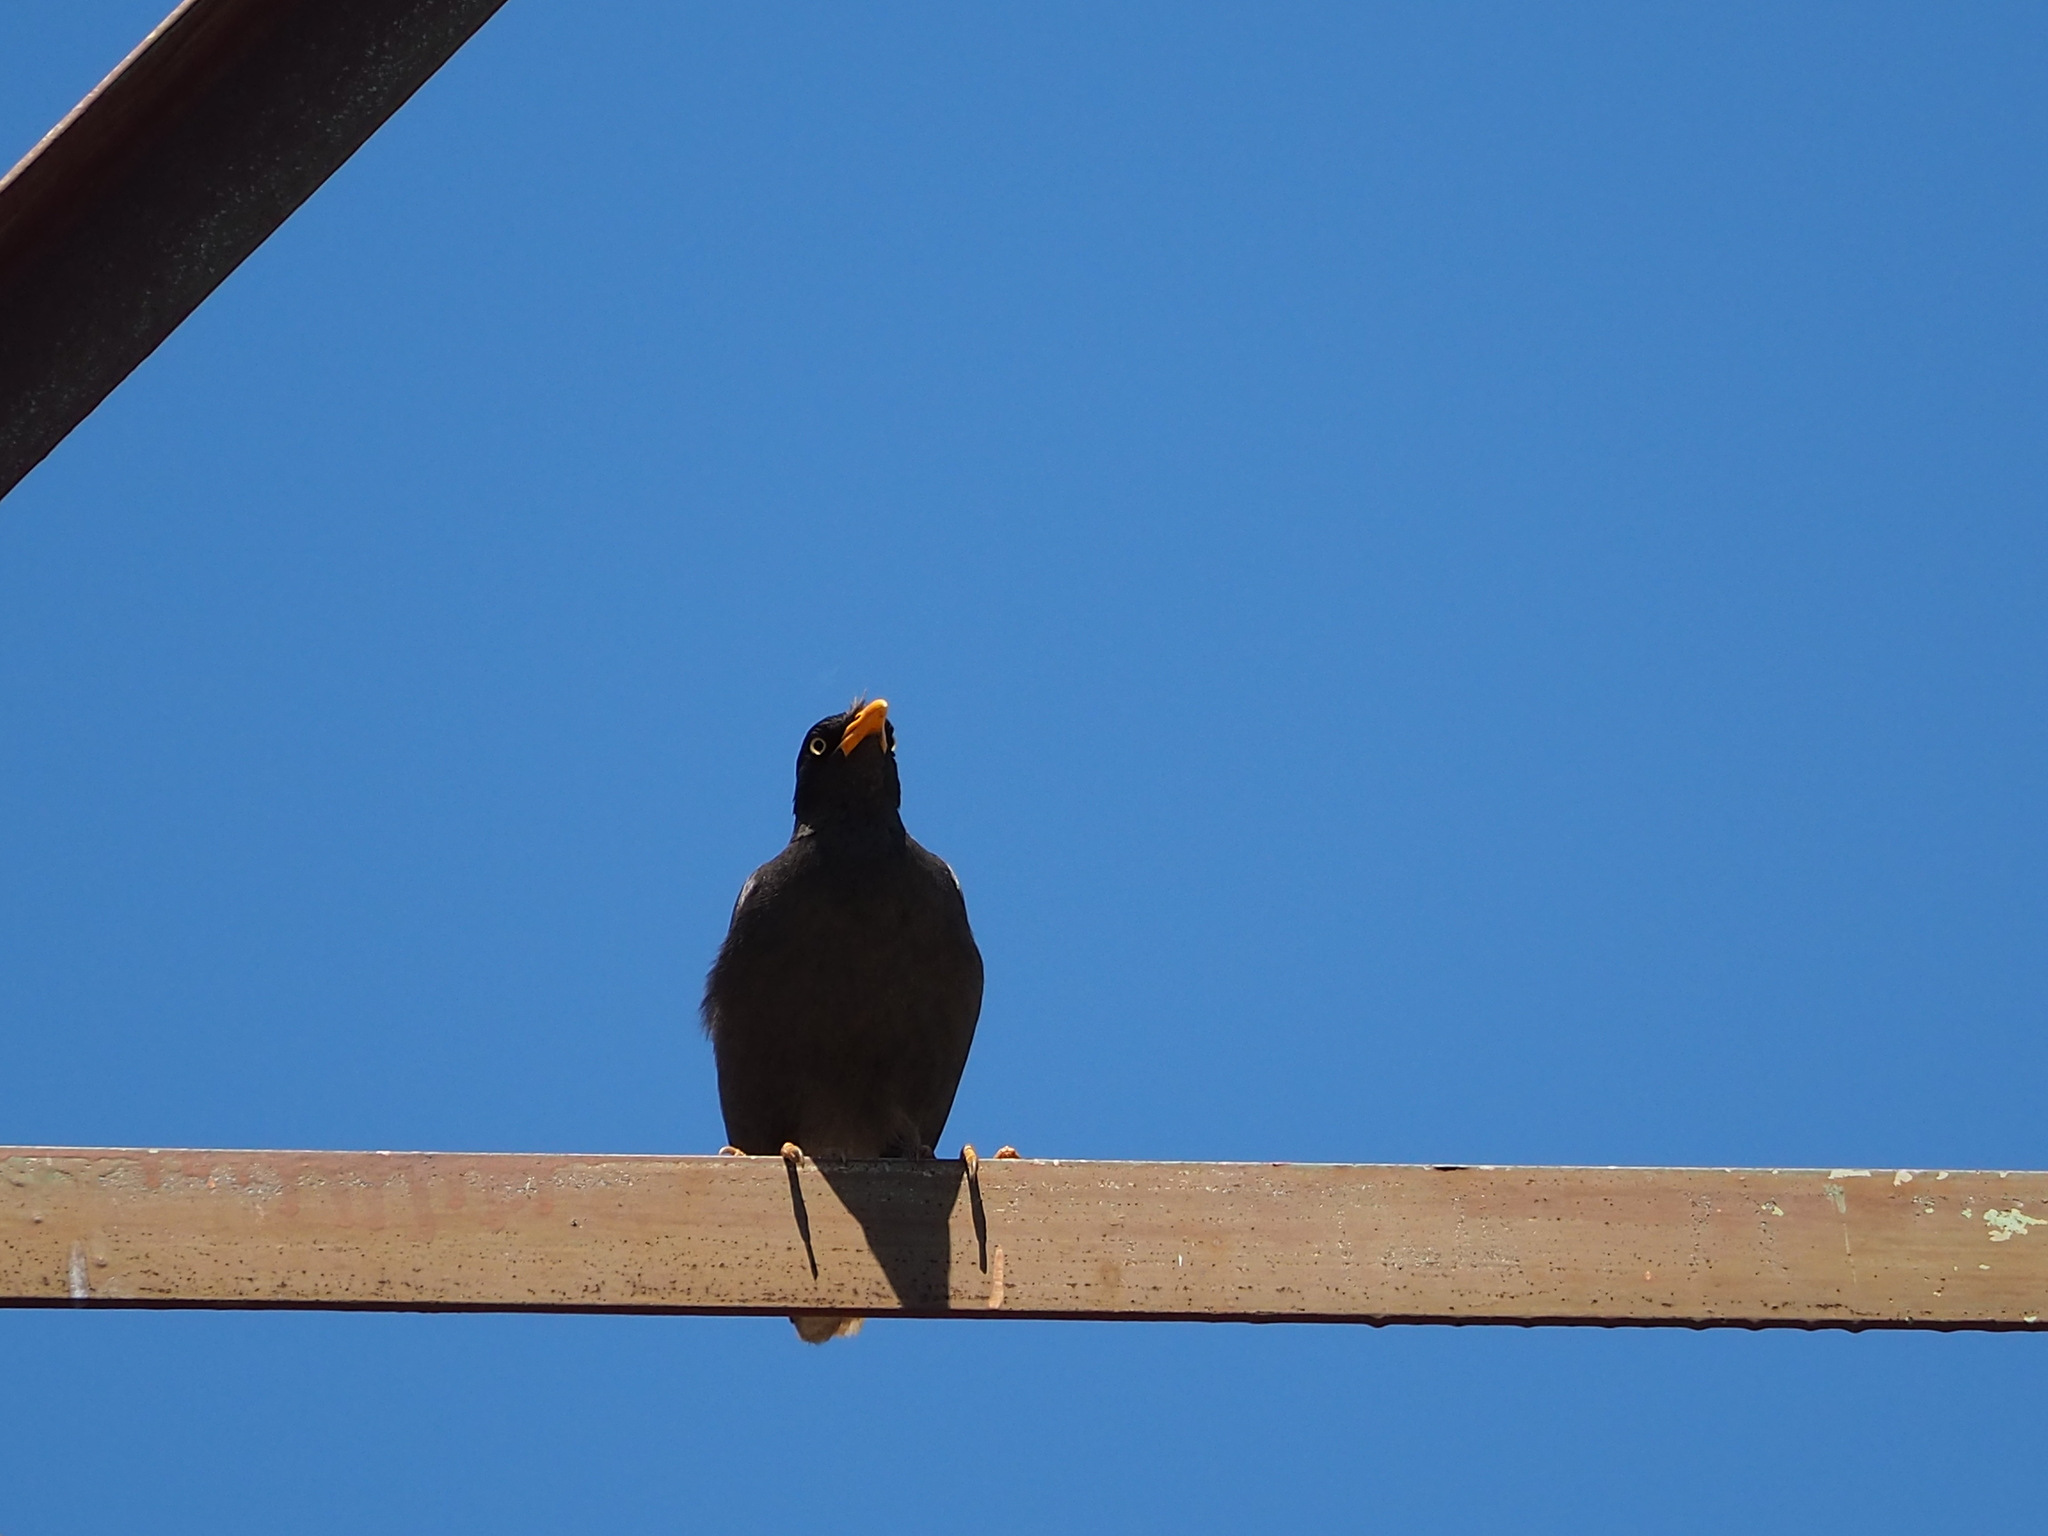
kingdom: Animalia
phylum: Chordata
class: Aves
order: Passeriformes
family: Sturnidae
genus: Acridotheres
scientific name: Acridotheres javanicus
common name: Javan myna
